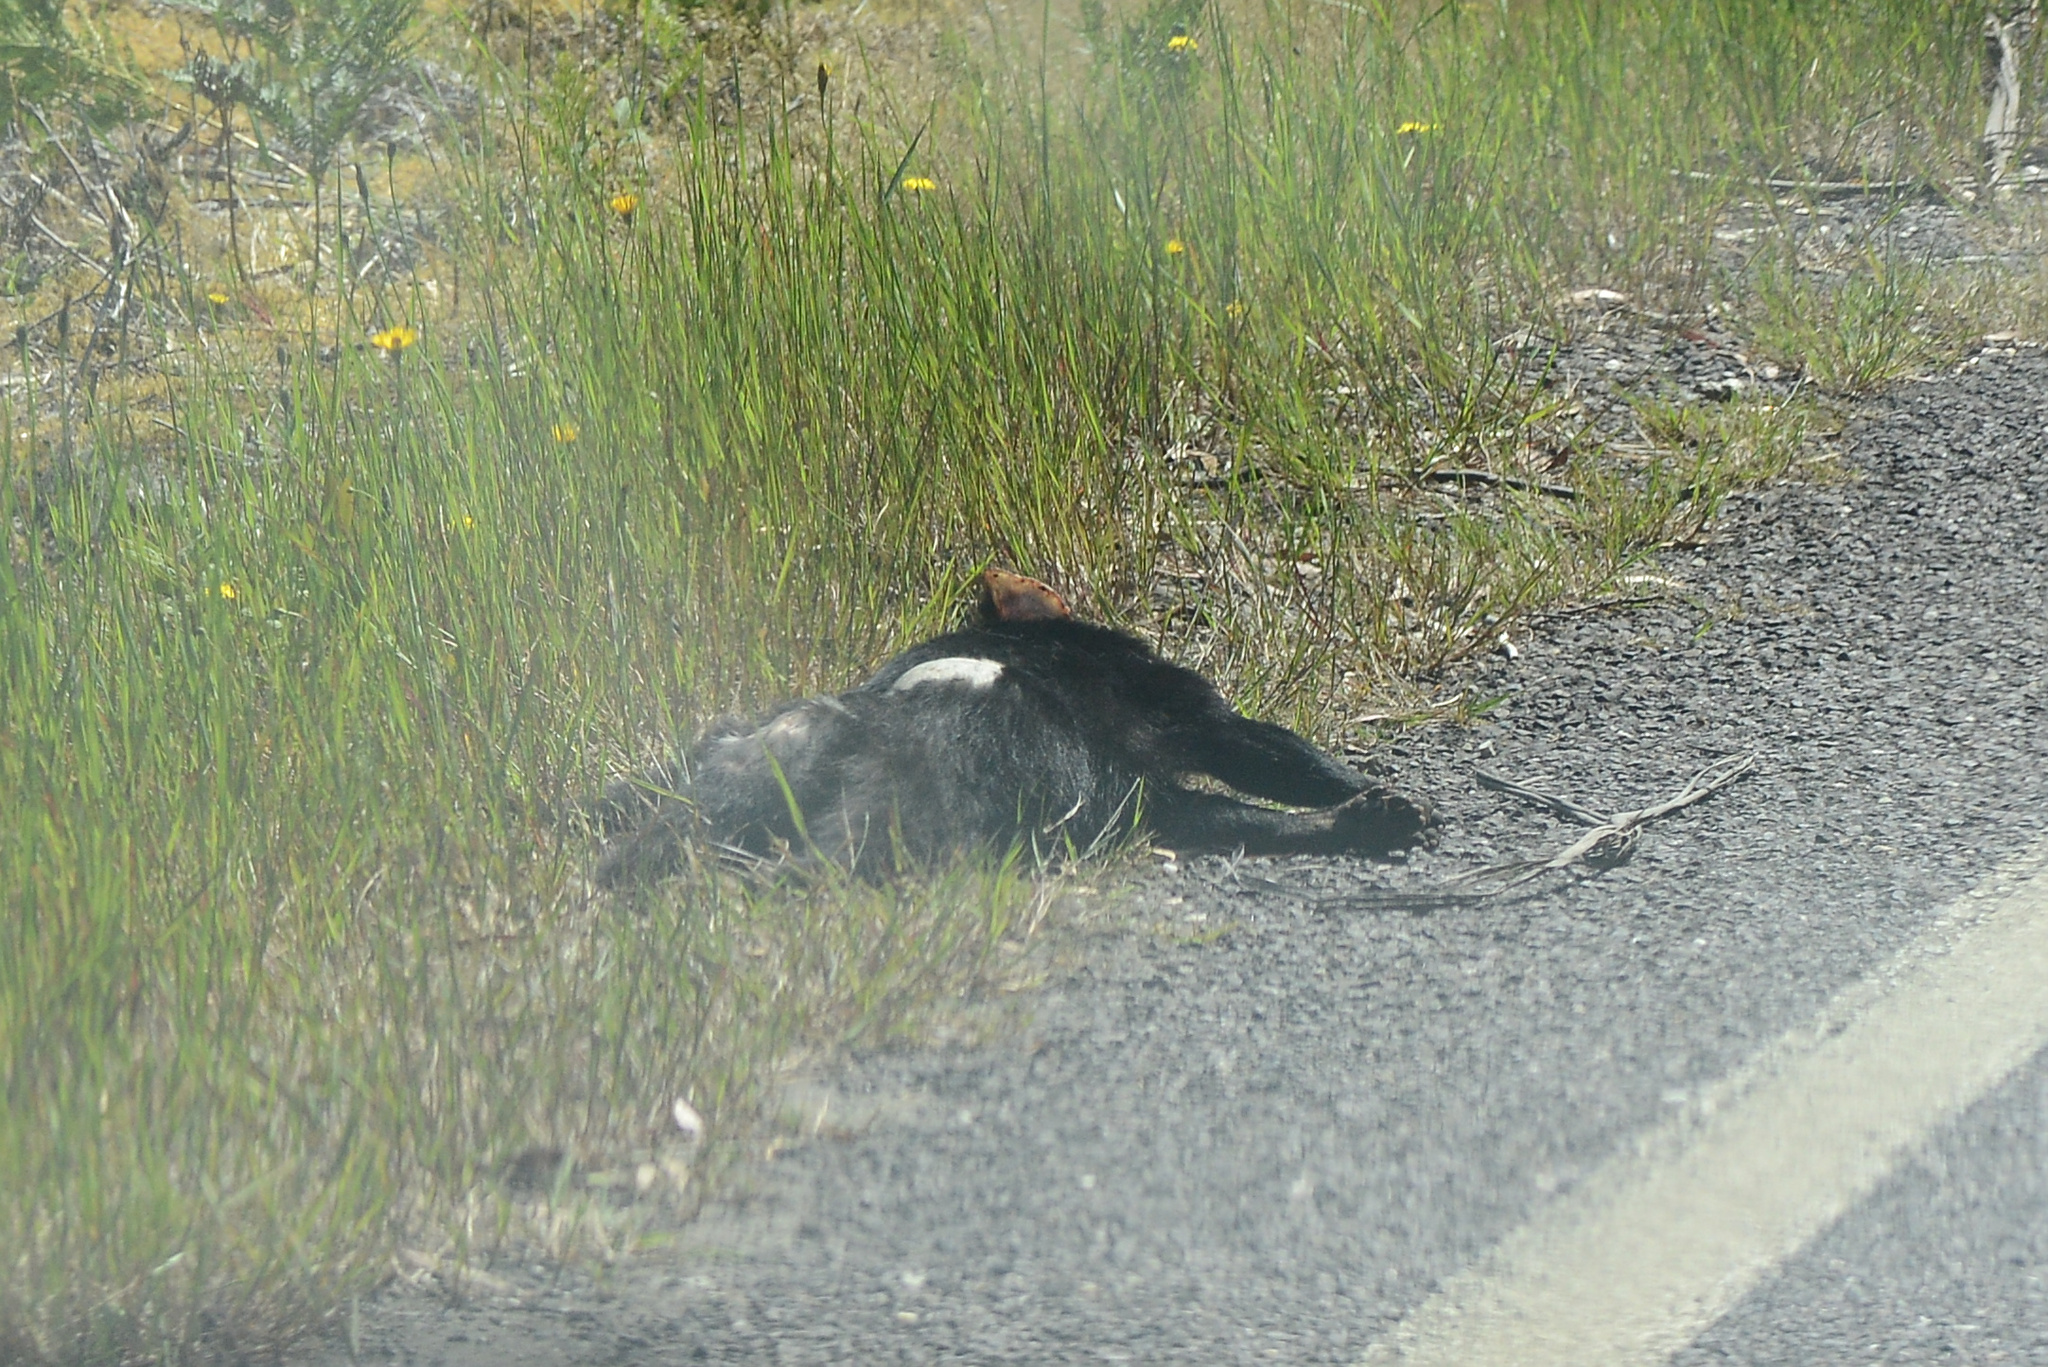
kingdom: Animalia
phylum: Chordata
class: Mammalia
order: Dasyuromorphia
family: Dasyuridae
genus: Sarcophilus
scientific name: Sarcophilus harrisii
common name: Tasmanian devil
